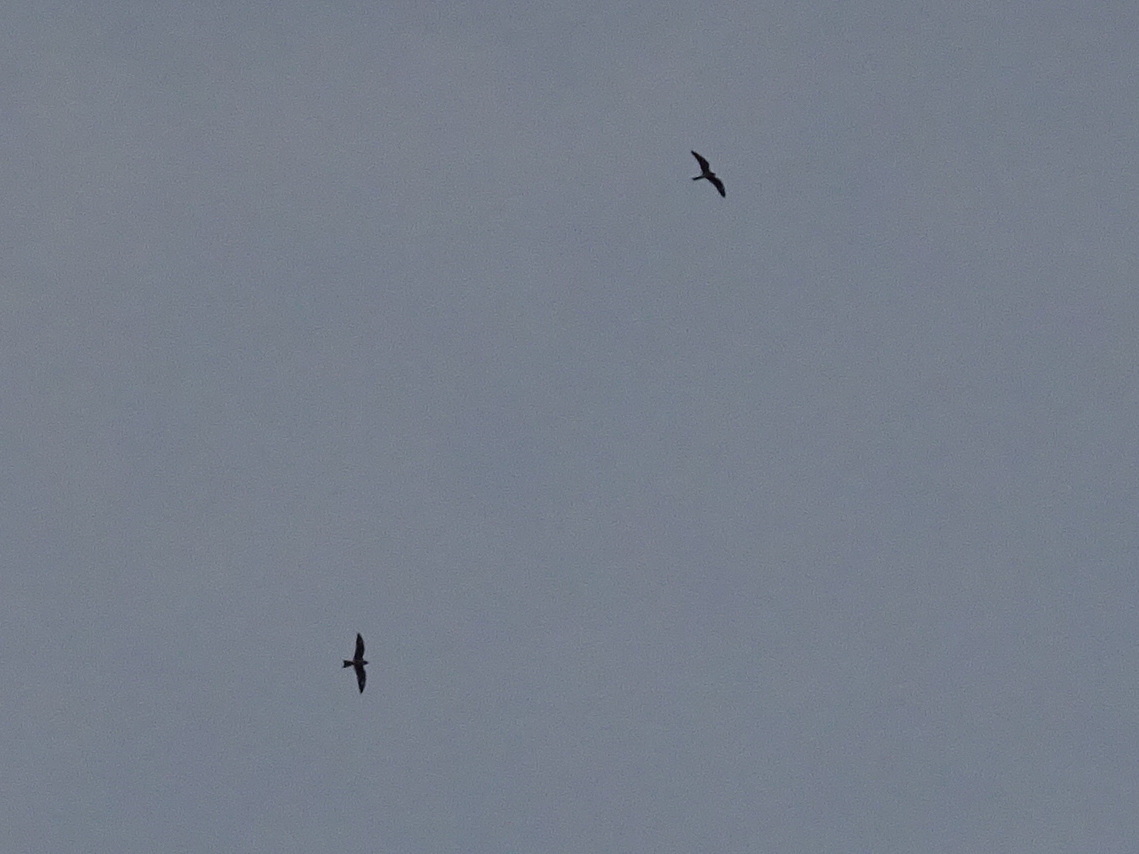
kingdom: Animalia
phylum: Chordata
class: Aves
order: Caprimulgiformes
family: Caprimulgidae
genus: Chordeiles
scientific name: Chordeiles minor
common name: Common nighthawk
